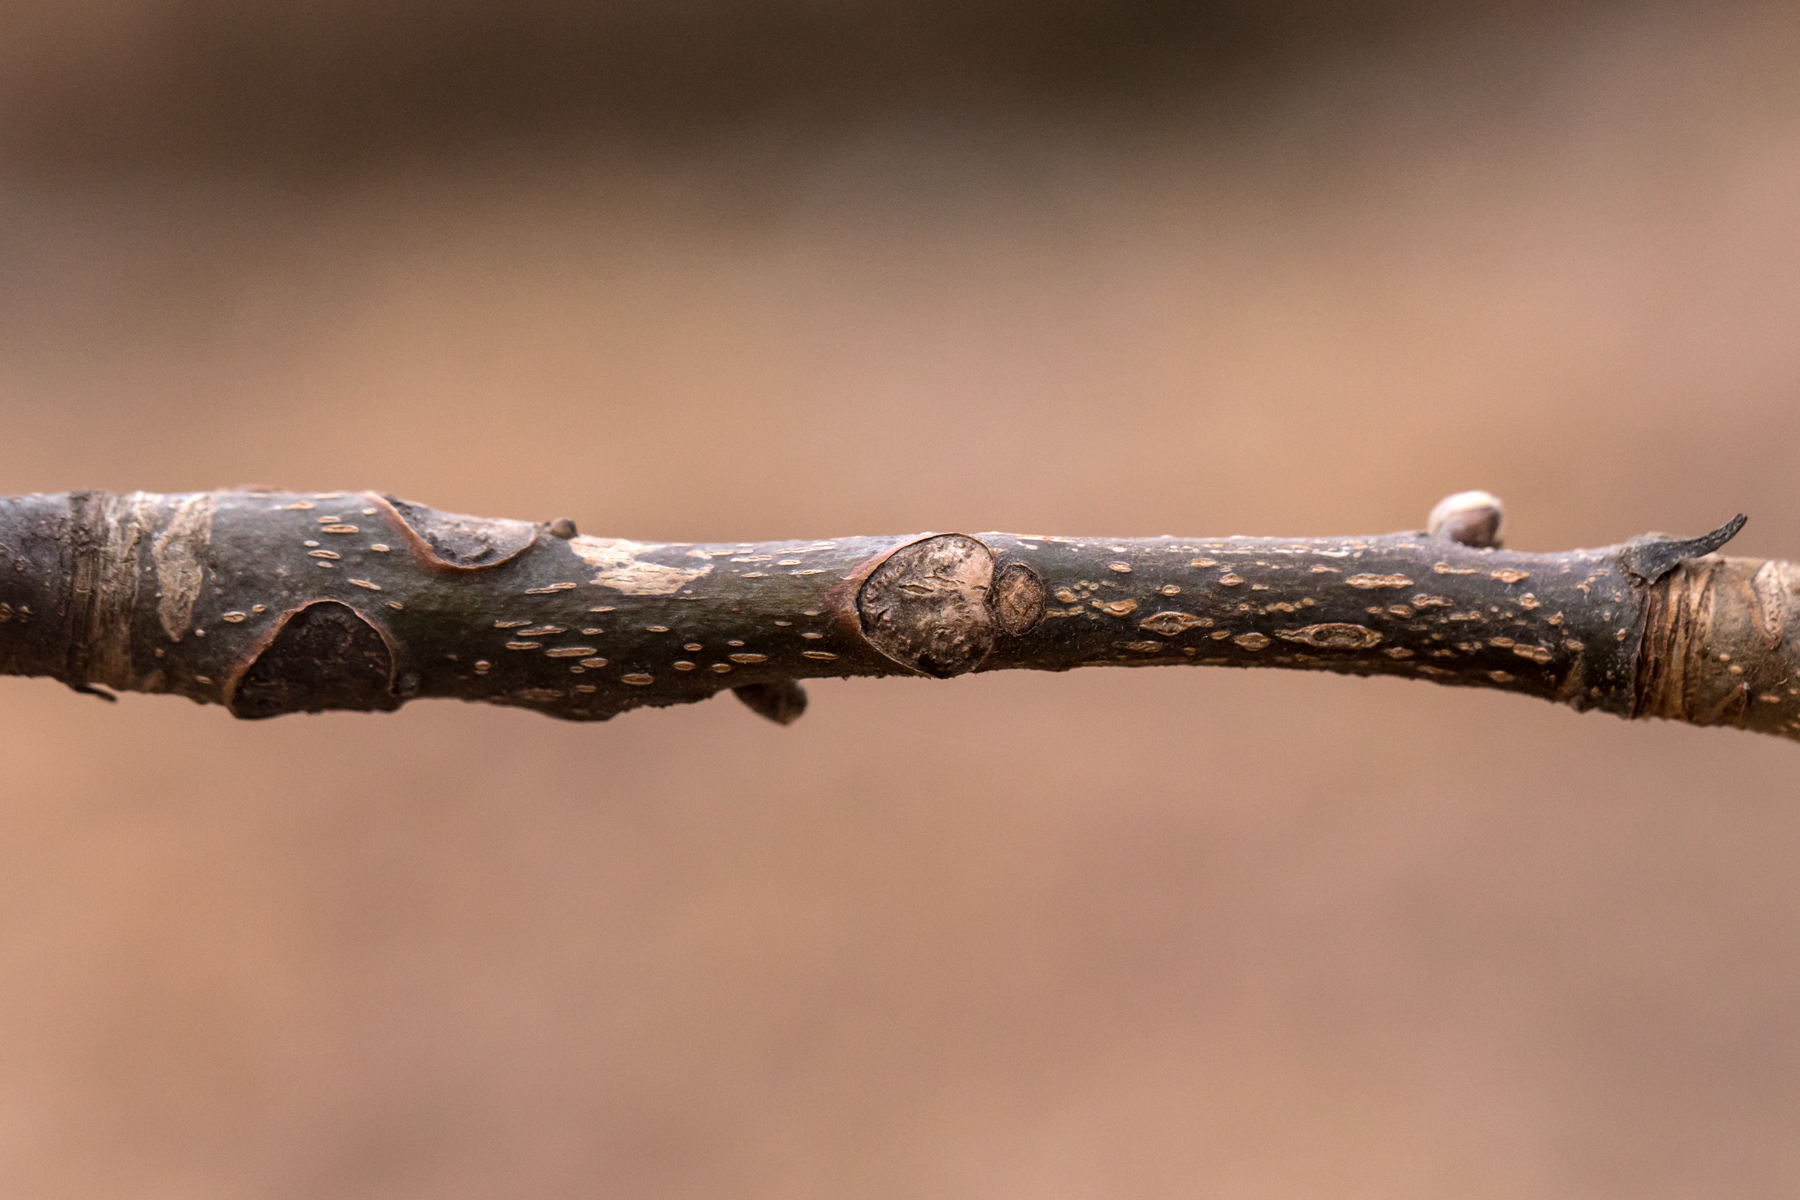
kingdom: Plantae
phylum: Tracheophyta
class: Magnoliopsida
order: Fagales
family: Juglandaceae
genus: Carya
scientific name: Carya ovata
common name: Shagbark hickory
